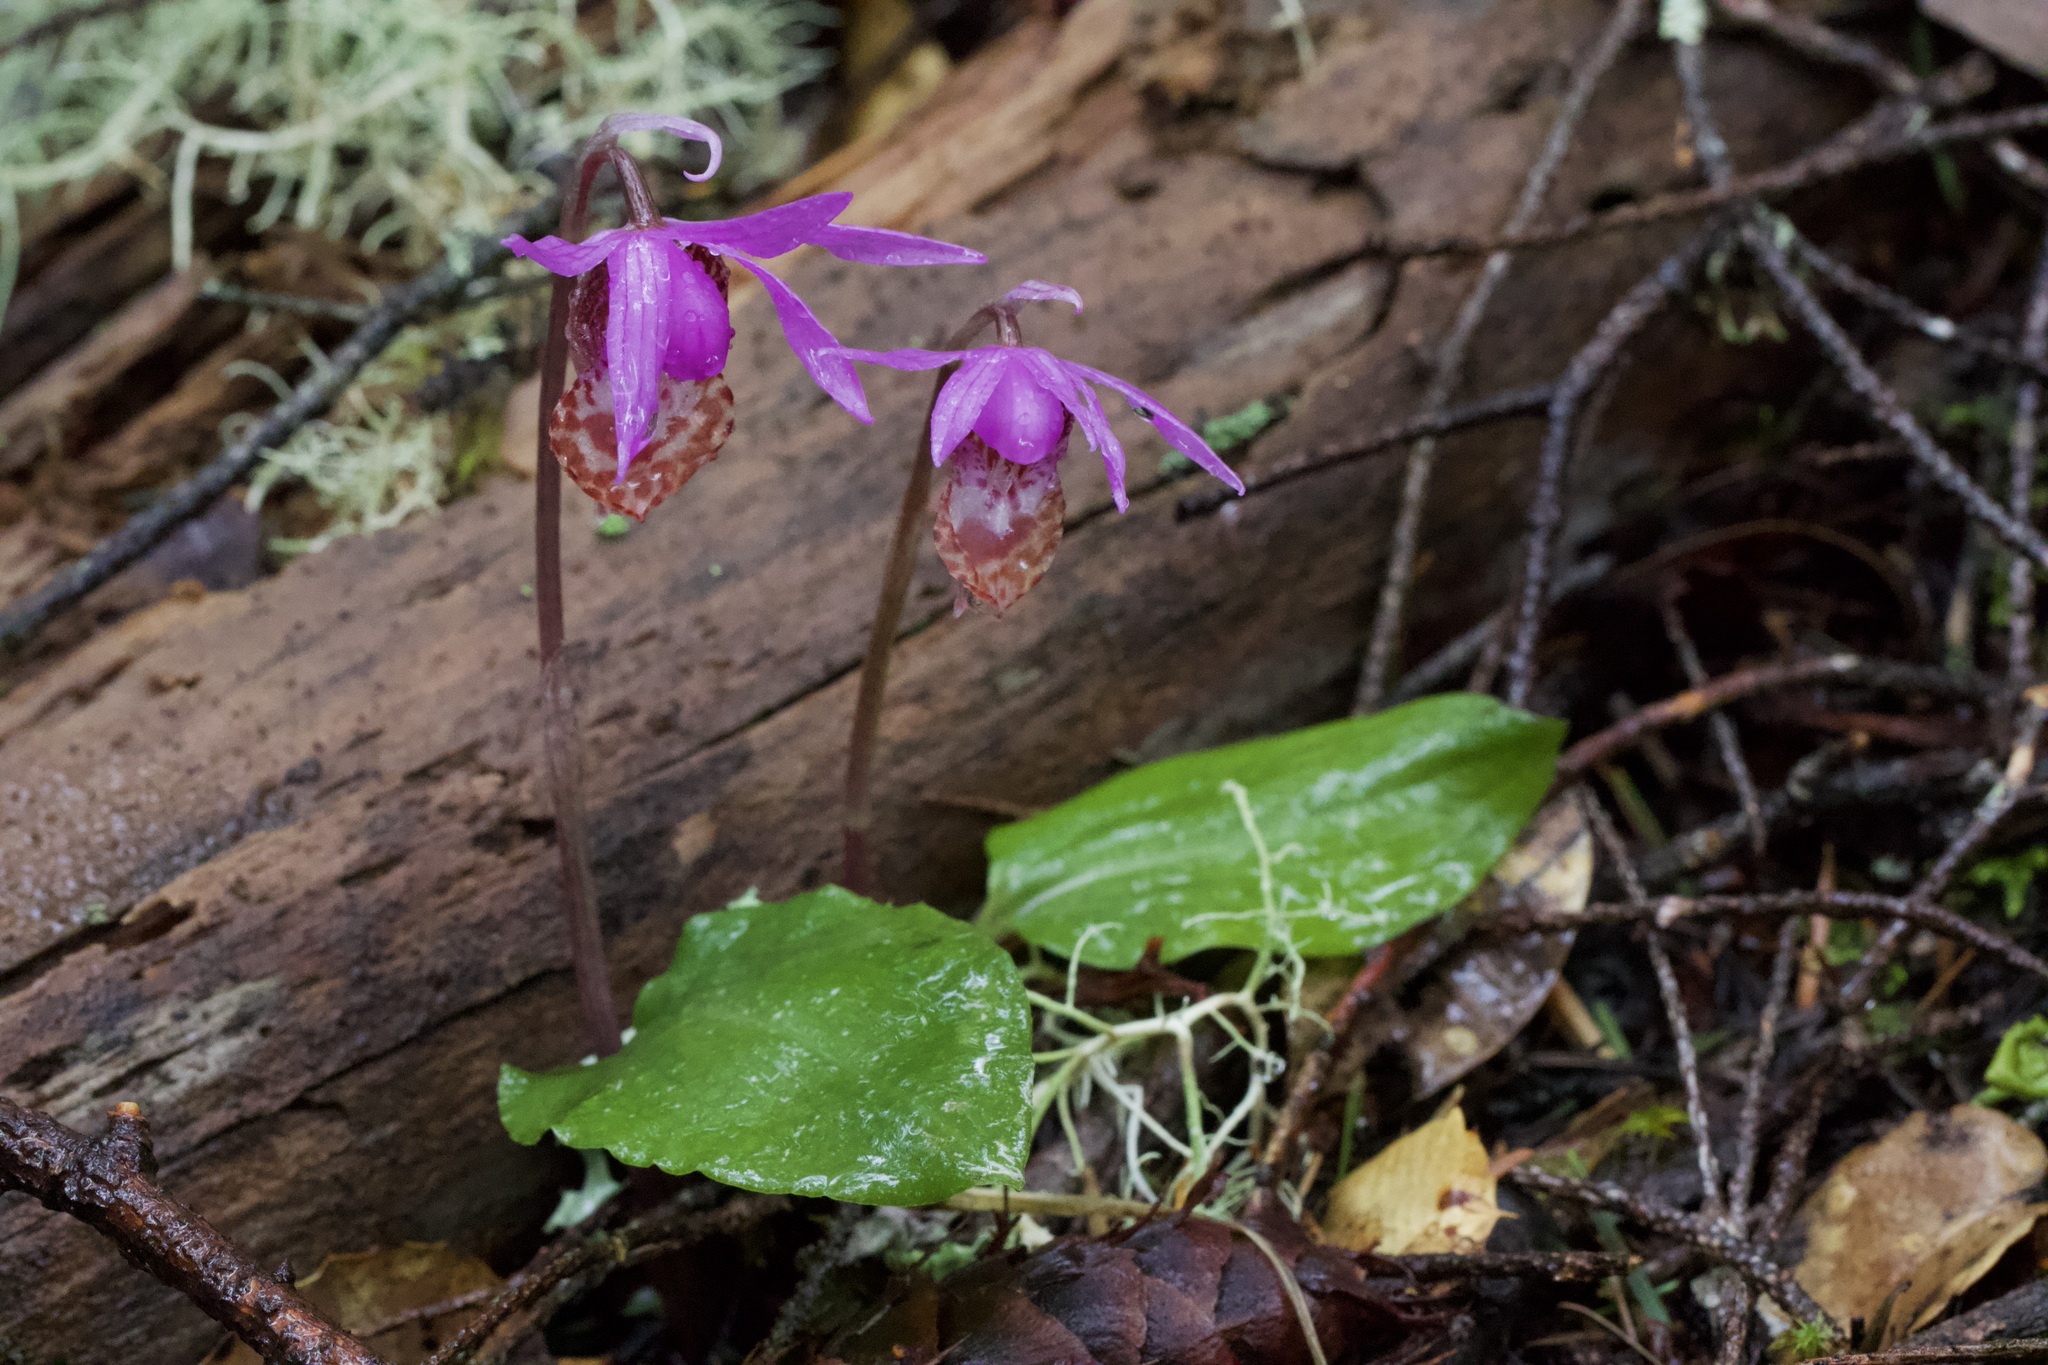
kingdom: Plantae
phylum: Tracheophyta
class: Liliopsida
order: Asparagales
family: Orchidaceae
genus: Calypso
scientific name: Calypso bulbosa
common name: Calypso
